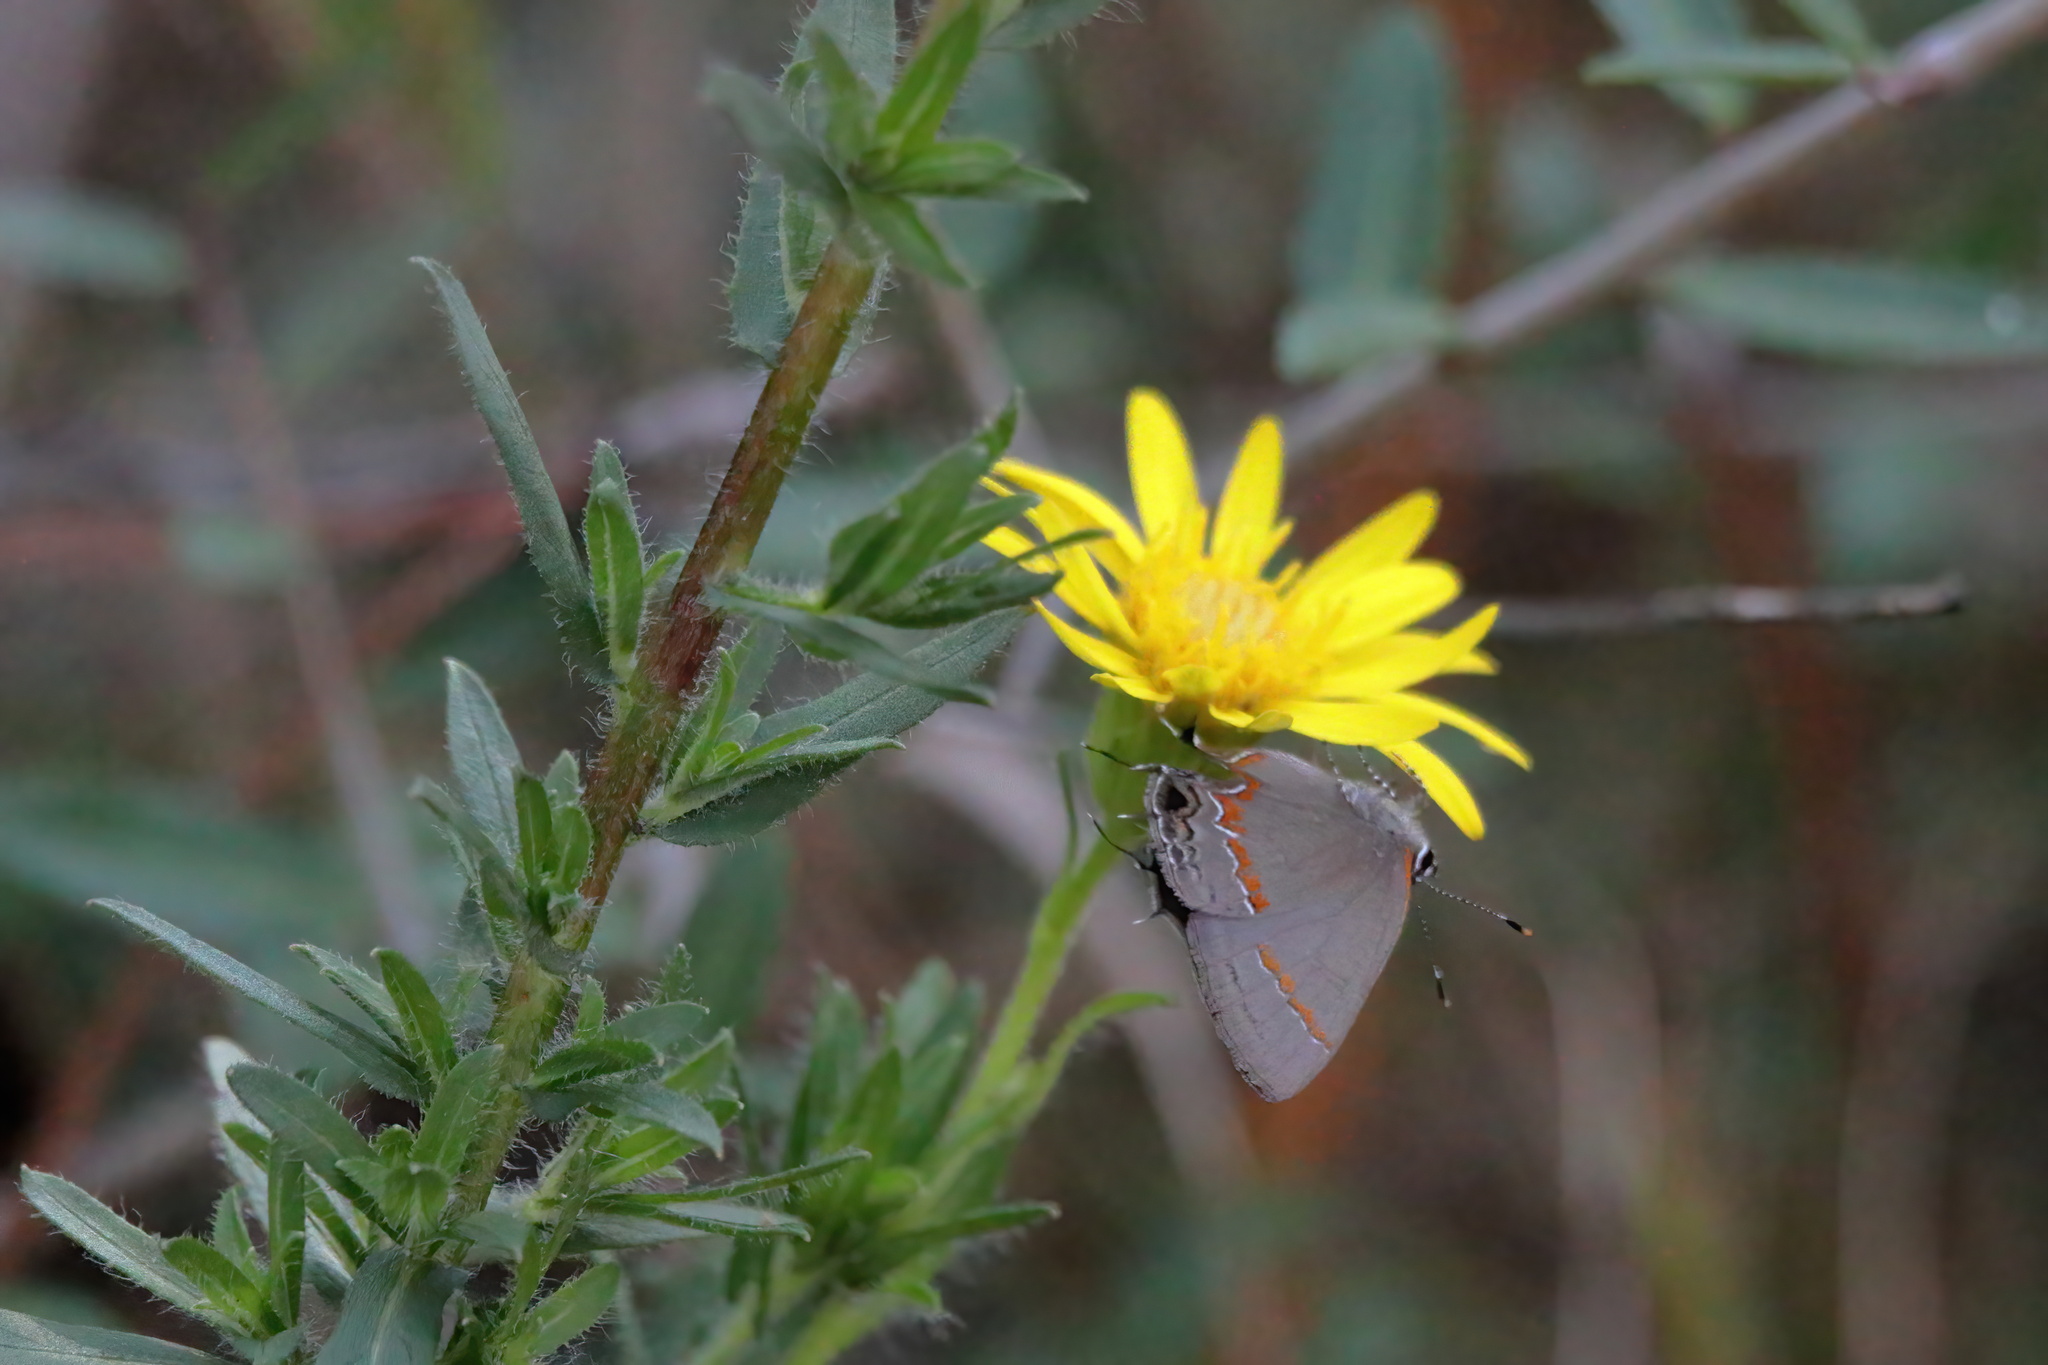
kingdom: Animalia
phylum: Arthropoda
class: Insecta
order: Lepidoptera
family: Lycaenidae
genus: Calycopis
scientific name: Calycopis cecrops
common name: Red-banded hairstreak
